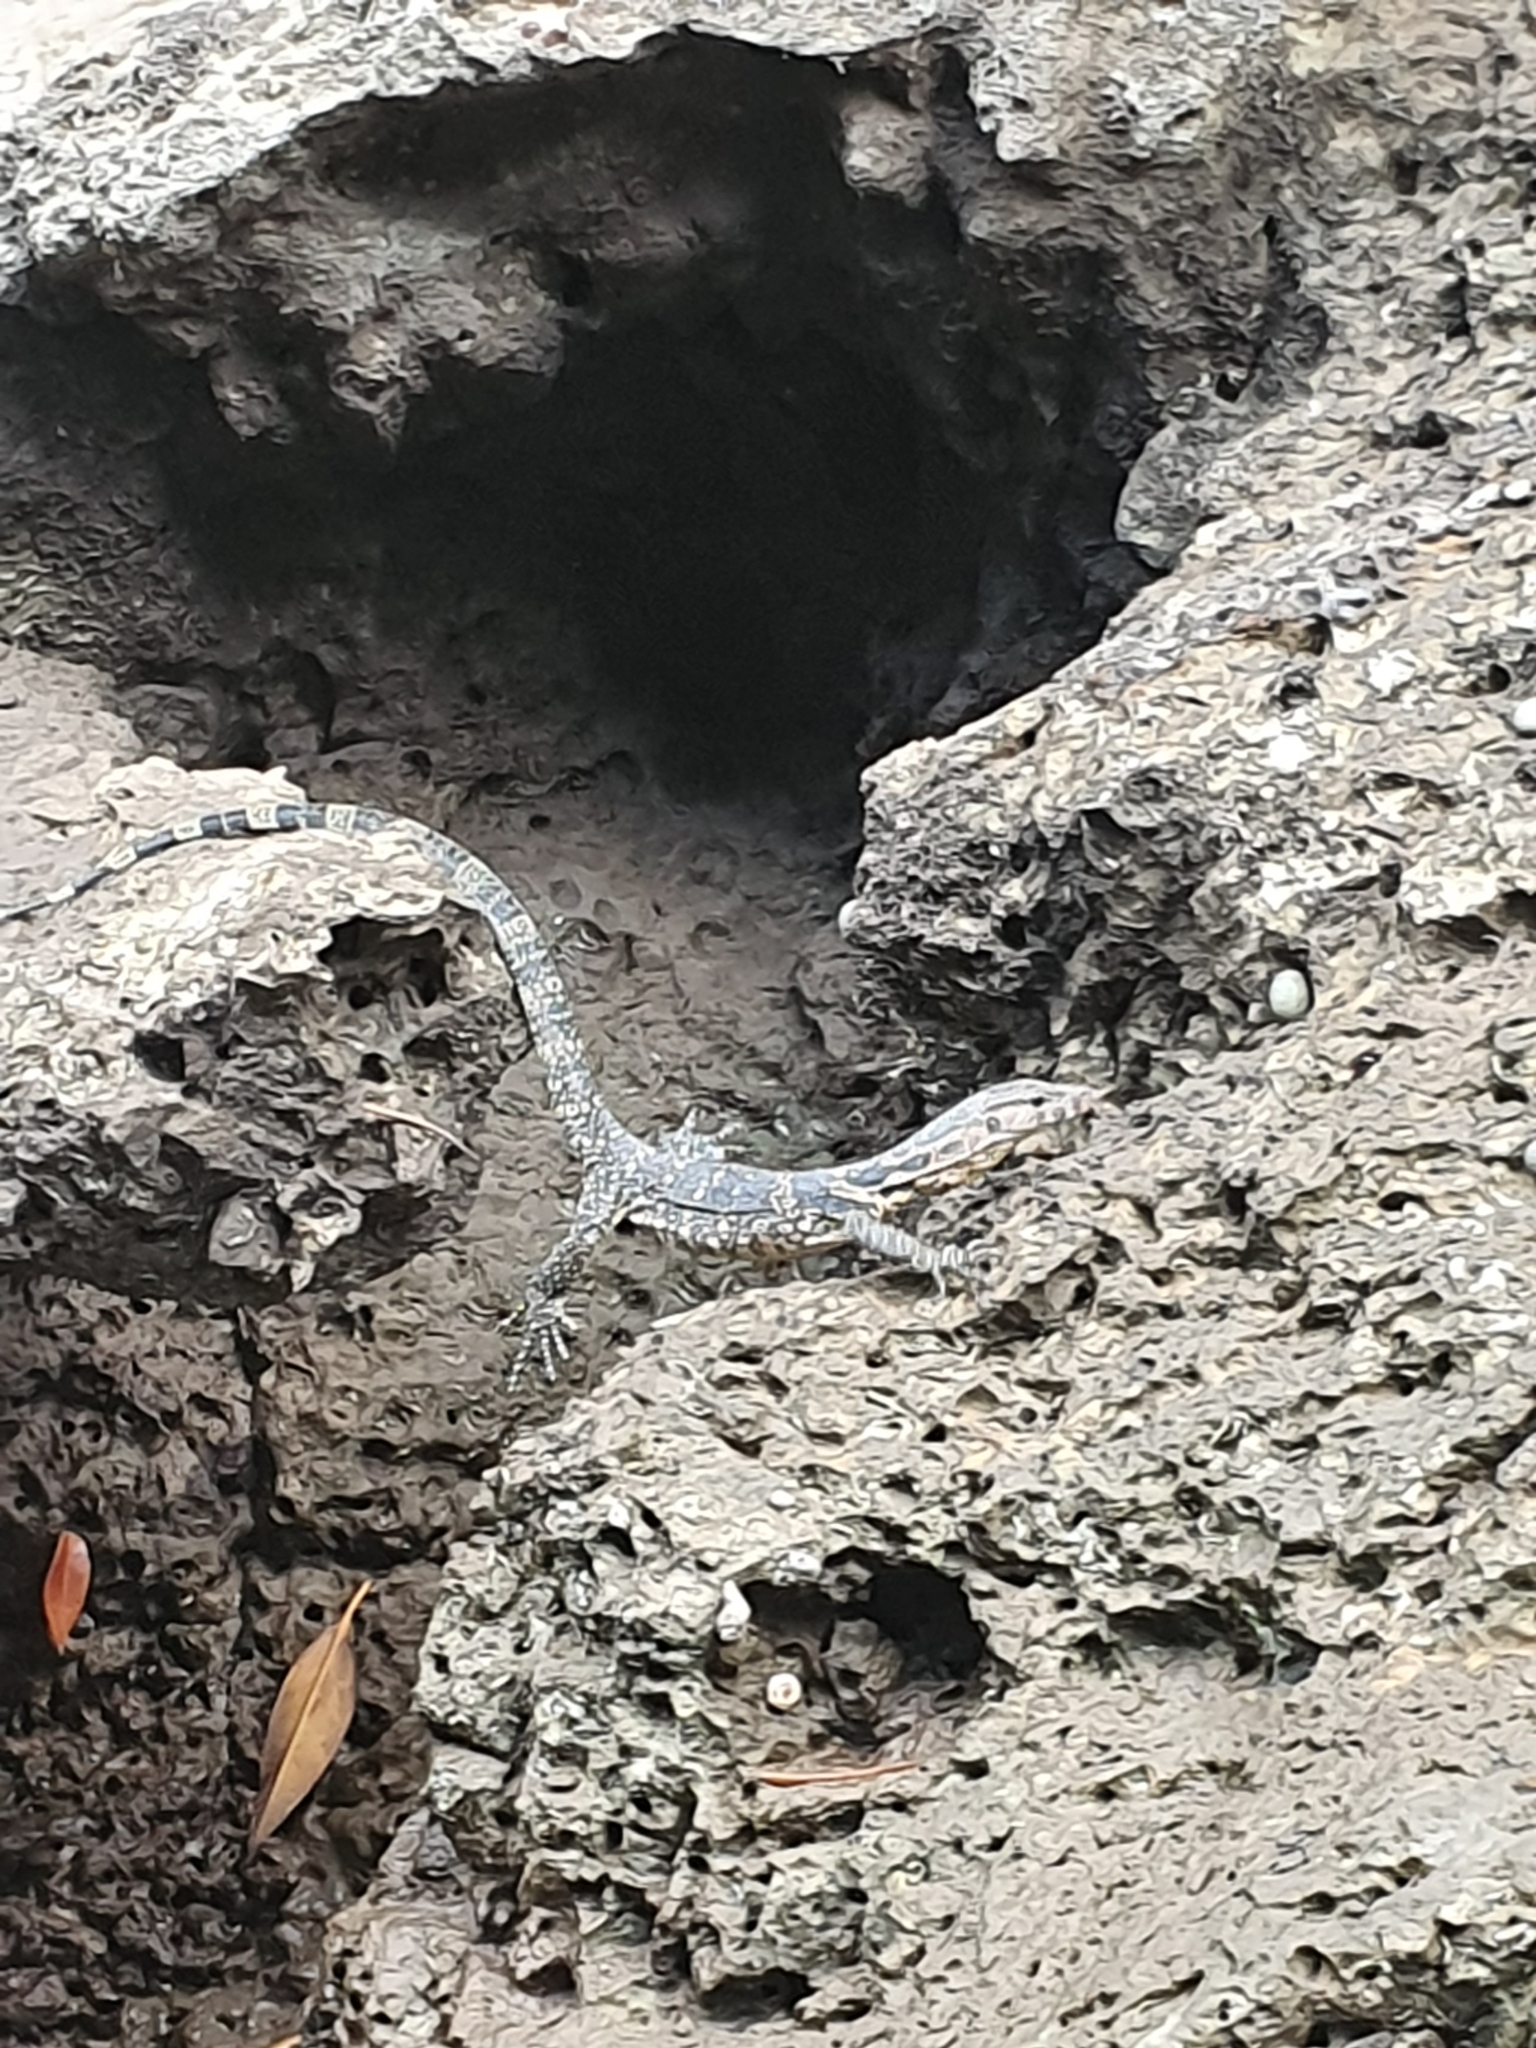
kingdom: Animalia
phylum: Chordata
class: Squamata
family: Varanidae
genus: Varanus
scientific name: Varanus salvator
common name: Common water monitor
